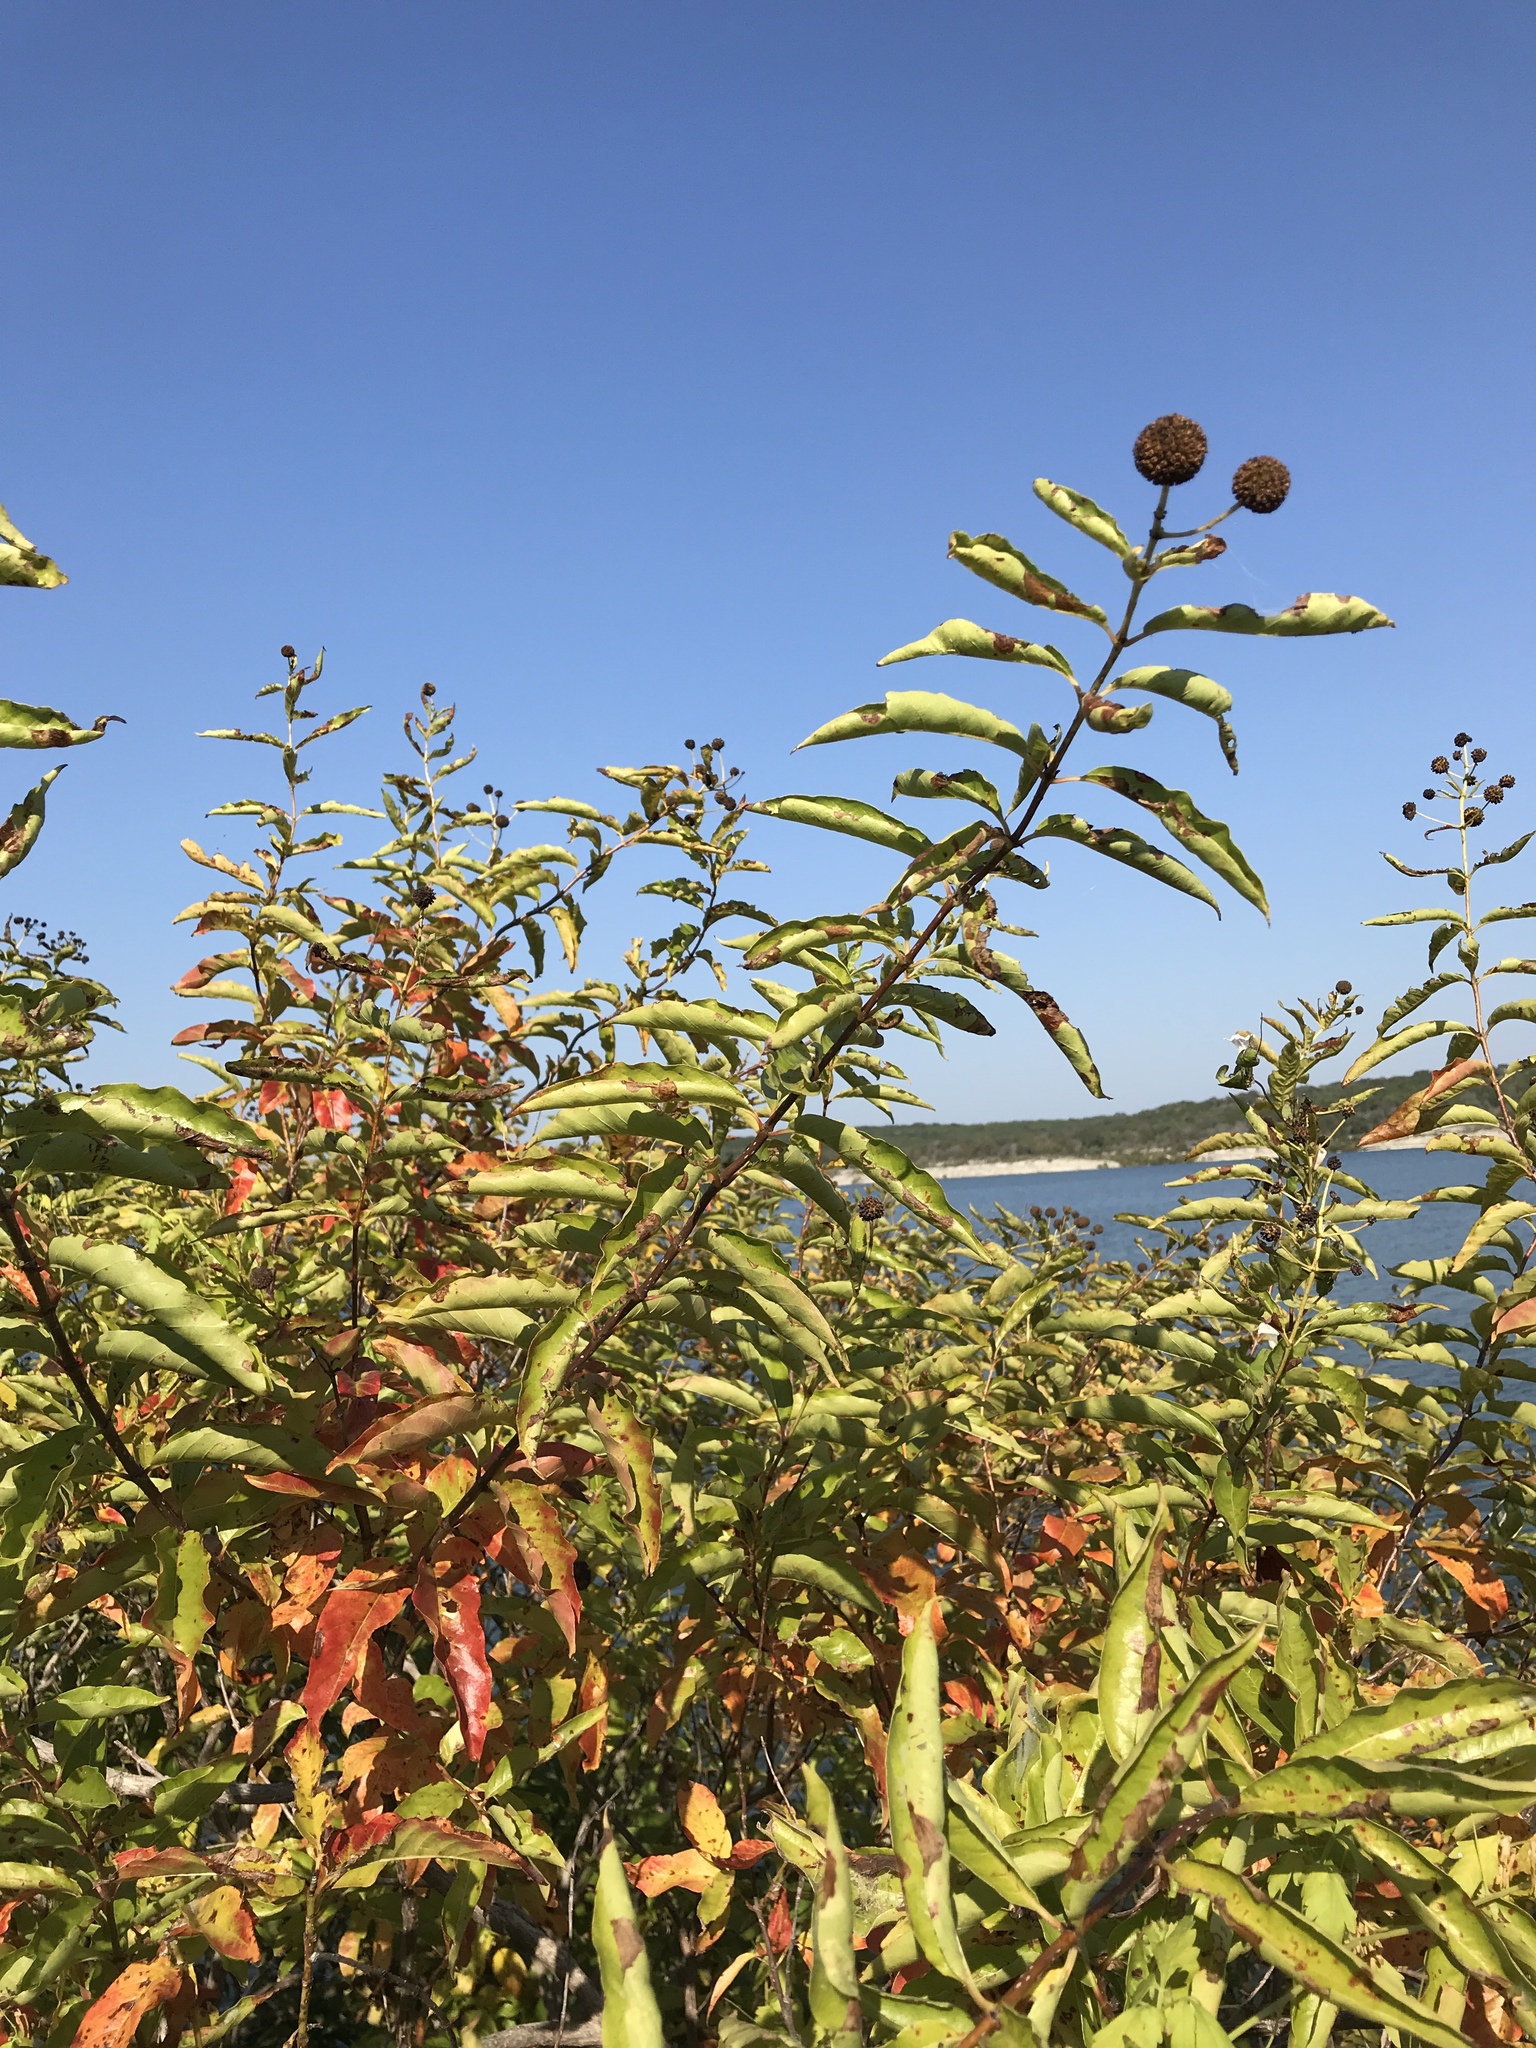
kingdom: Plantae
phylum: Tracheophyta
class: Magnoliopsida
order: Gentianales
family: Rubiaceae
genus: Cephalanthus
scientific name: Cephalanthus occidentalis
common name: Button-willow
